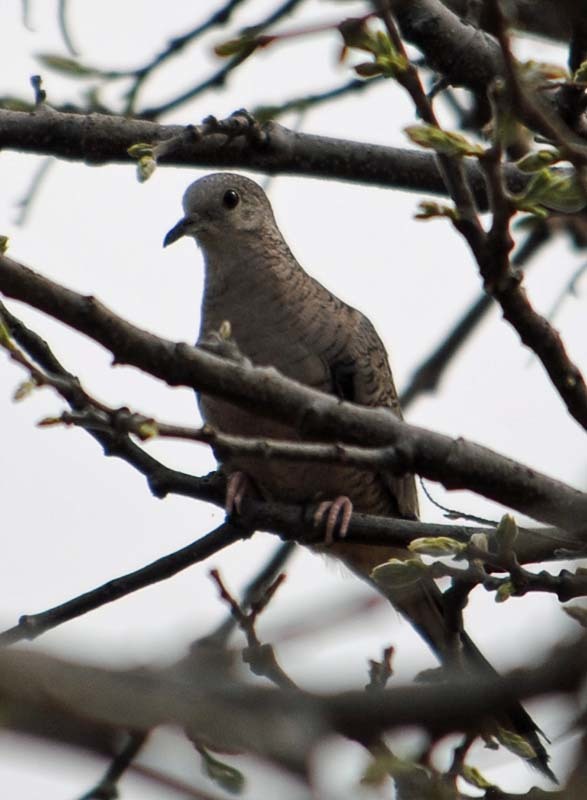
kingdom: Animalia
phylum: Chordata
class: Aves
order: Columbiformes
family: Columbidae
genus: Columbina
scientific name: Columbina inca
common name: Inca dove
